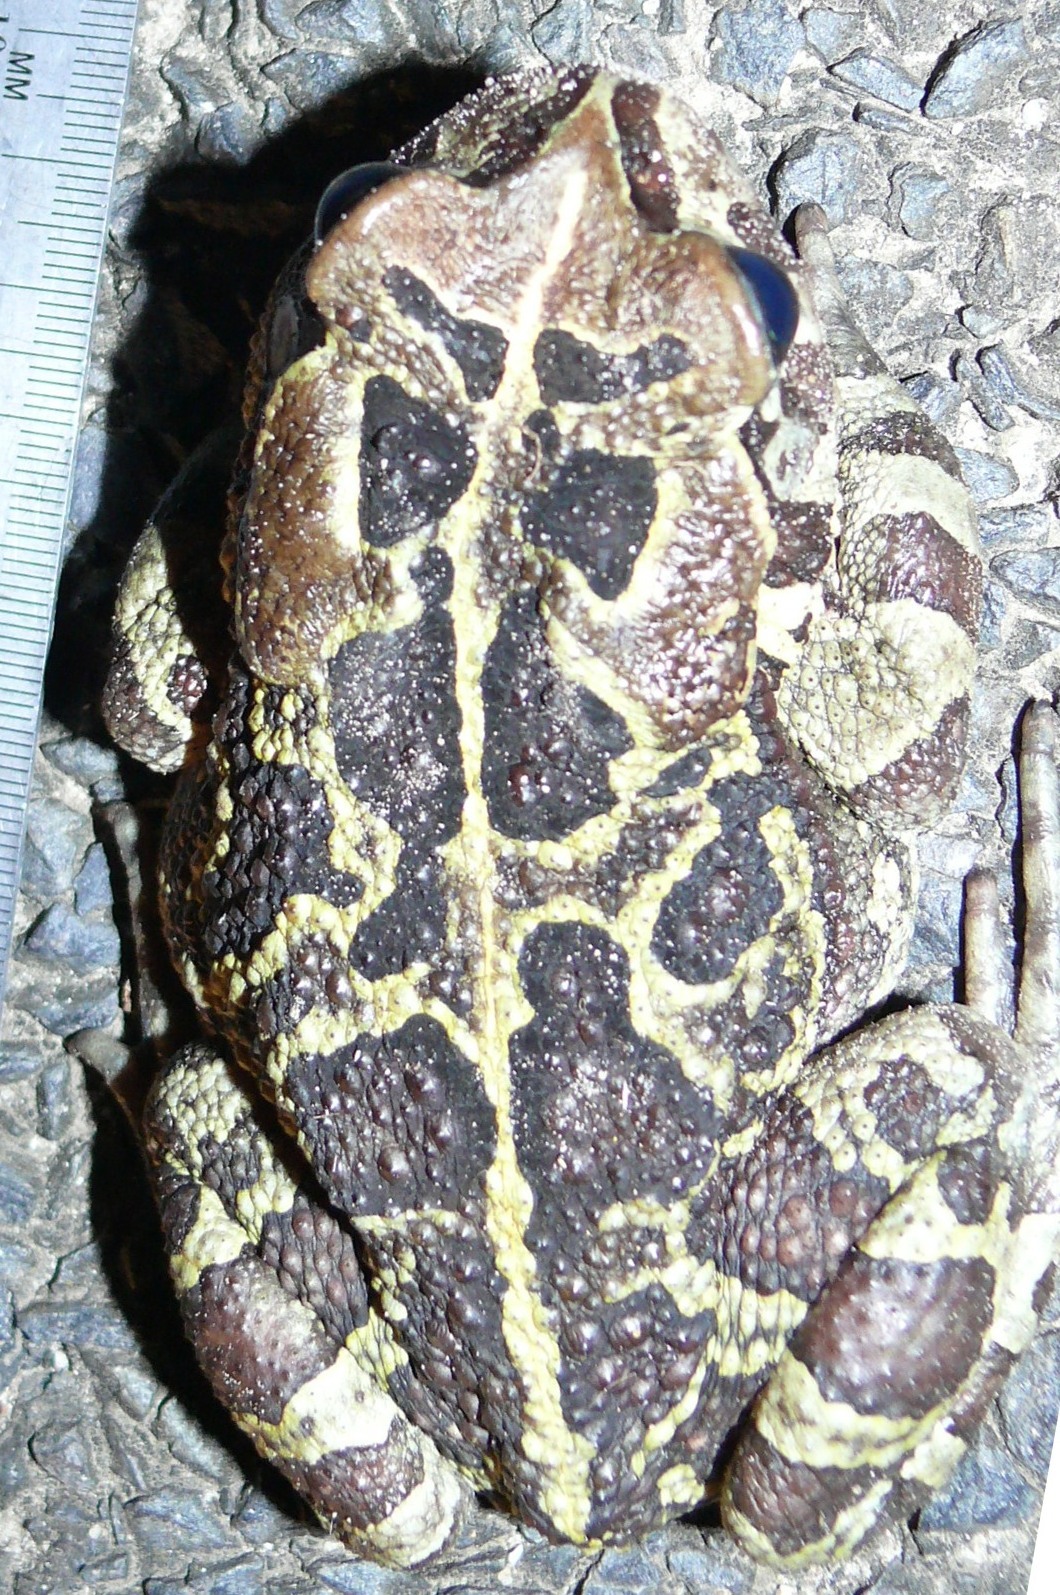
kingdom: Animalia
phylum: Chordata
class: Amphibia
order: Anura
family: Bufonidae
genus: Sclerophrys
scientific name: Sclerophrys pantherina
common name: Panther toad
